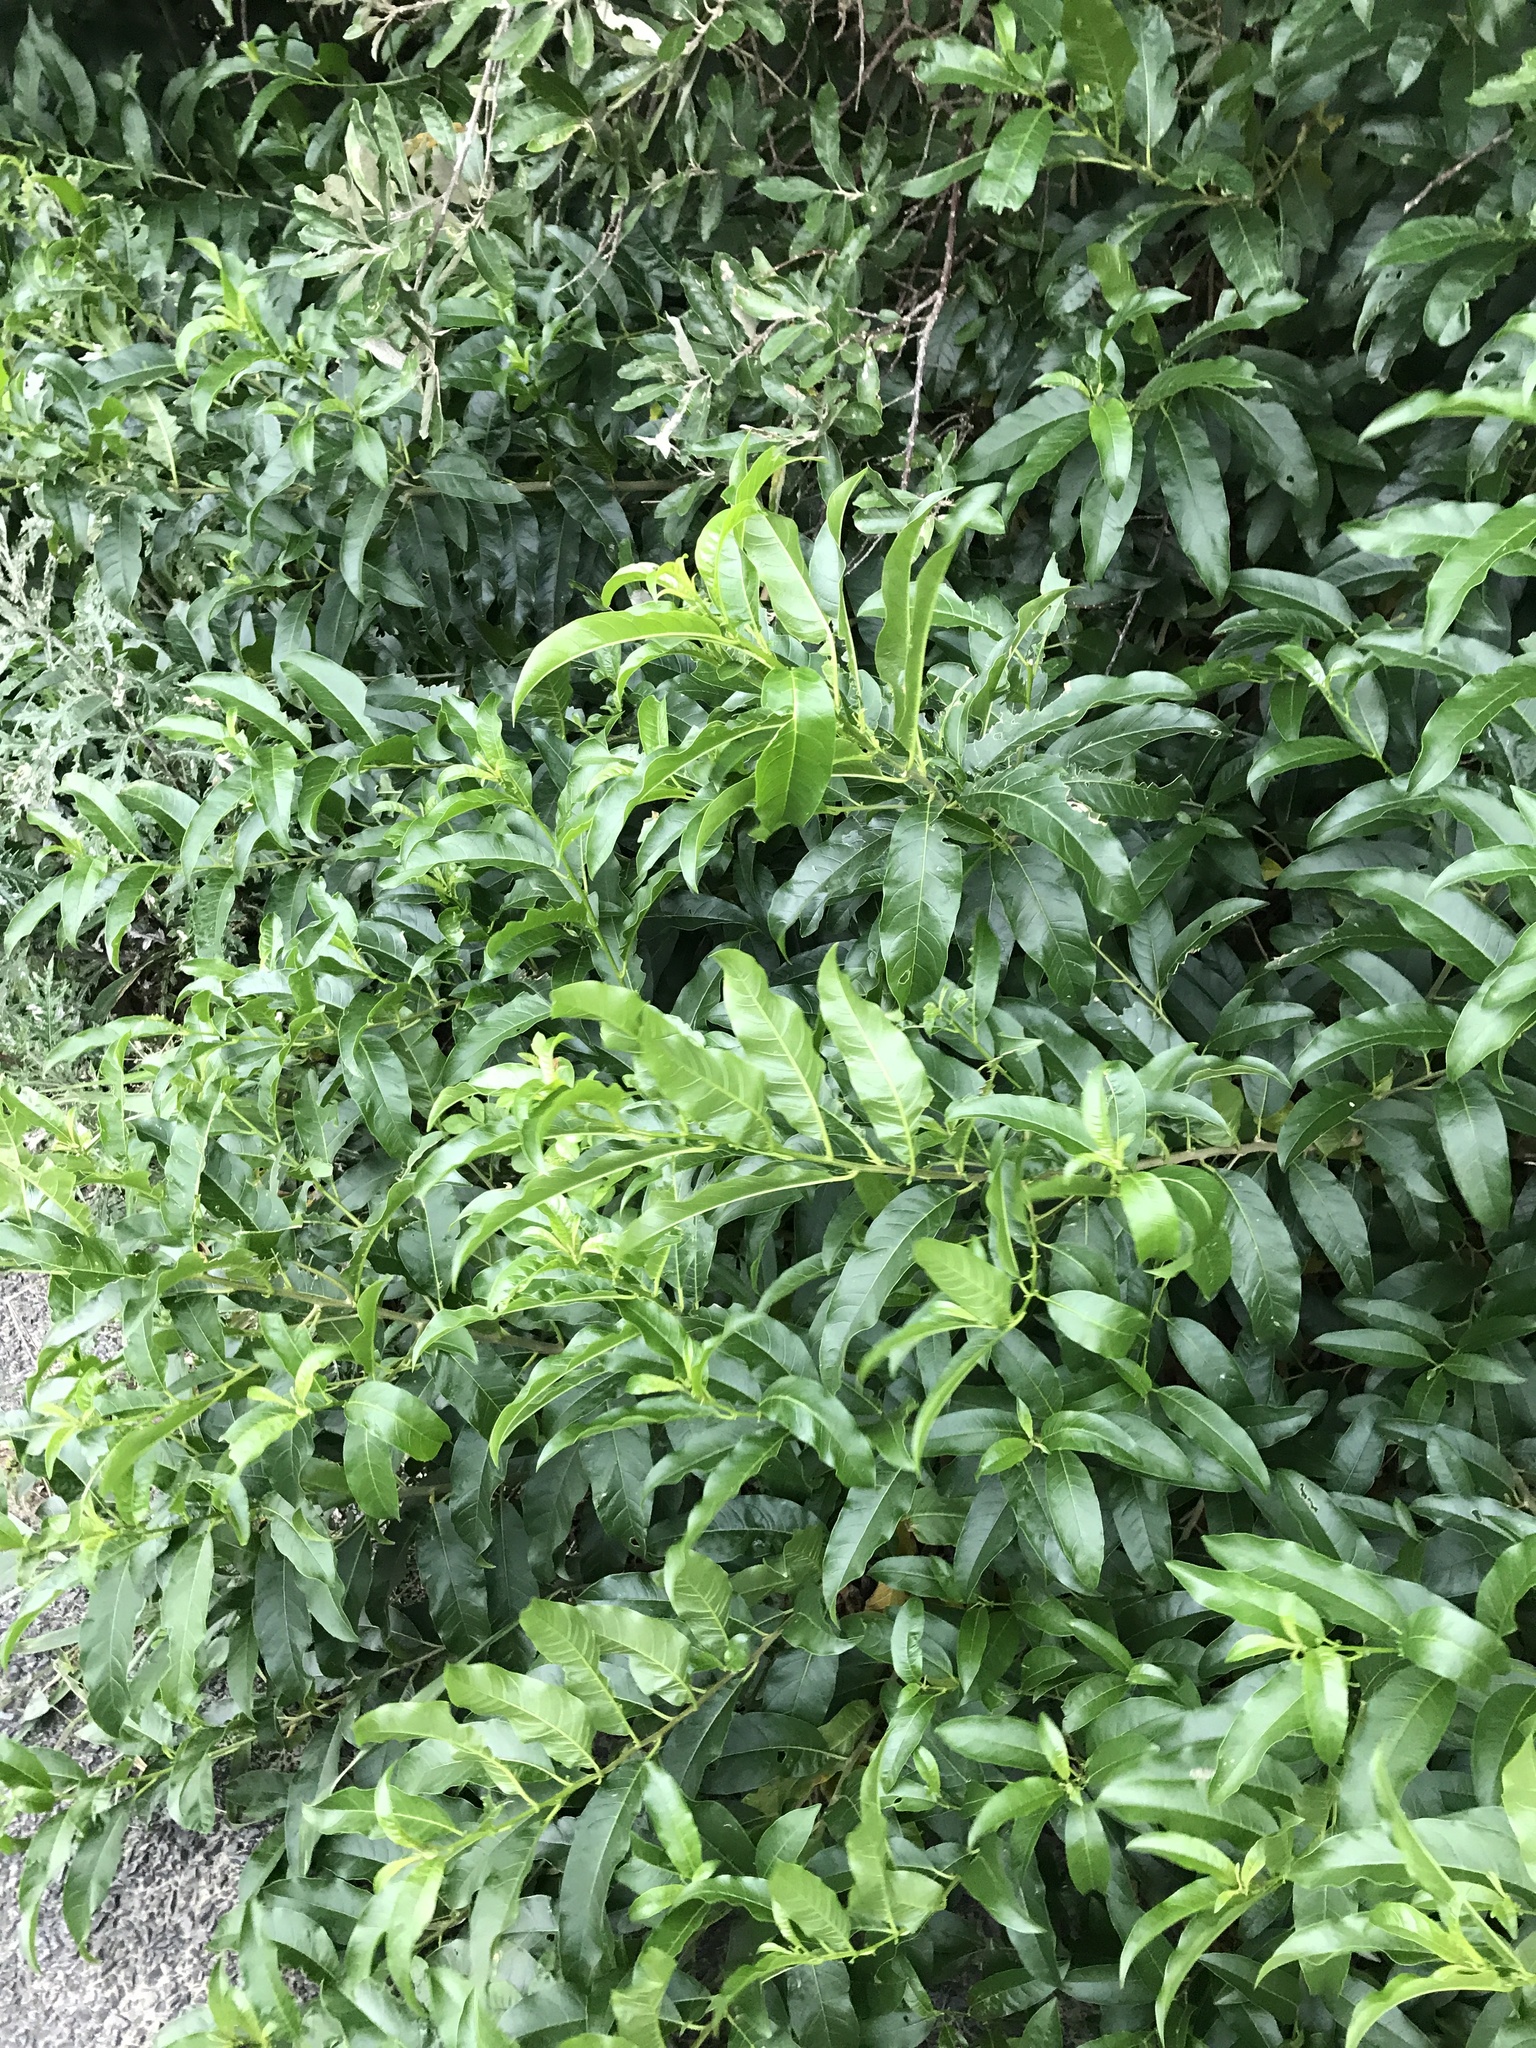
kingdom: Plantae
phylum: Tracheophyta
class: Magnoliopsida
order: Solanales
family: Solanaceae
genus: Cestrum
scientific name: Cestrum laevigatum
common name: Inkberry
